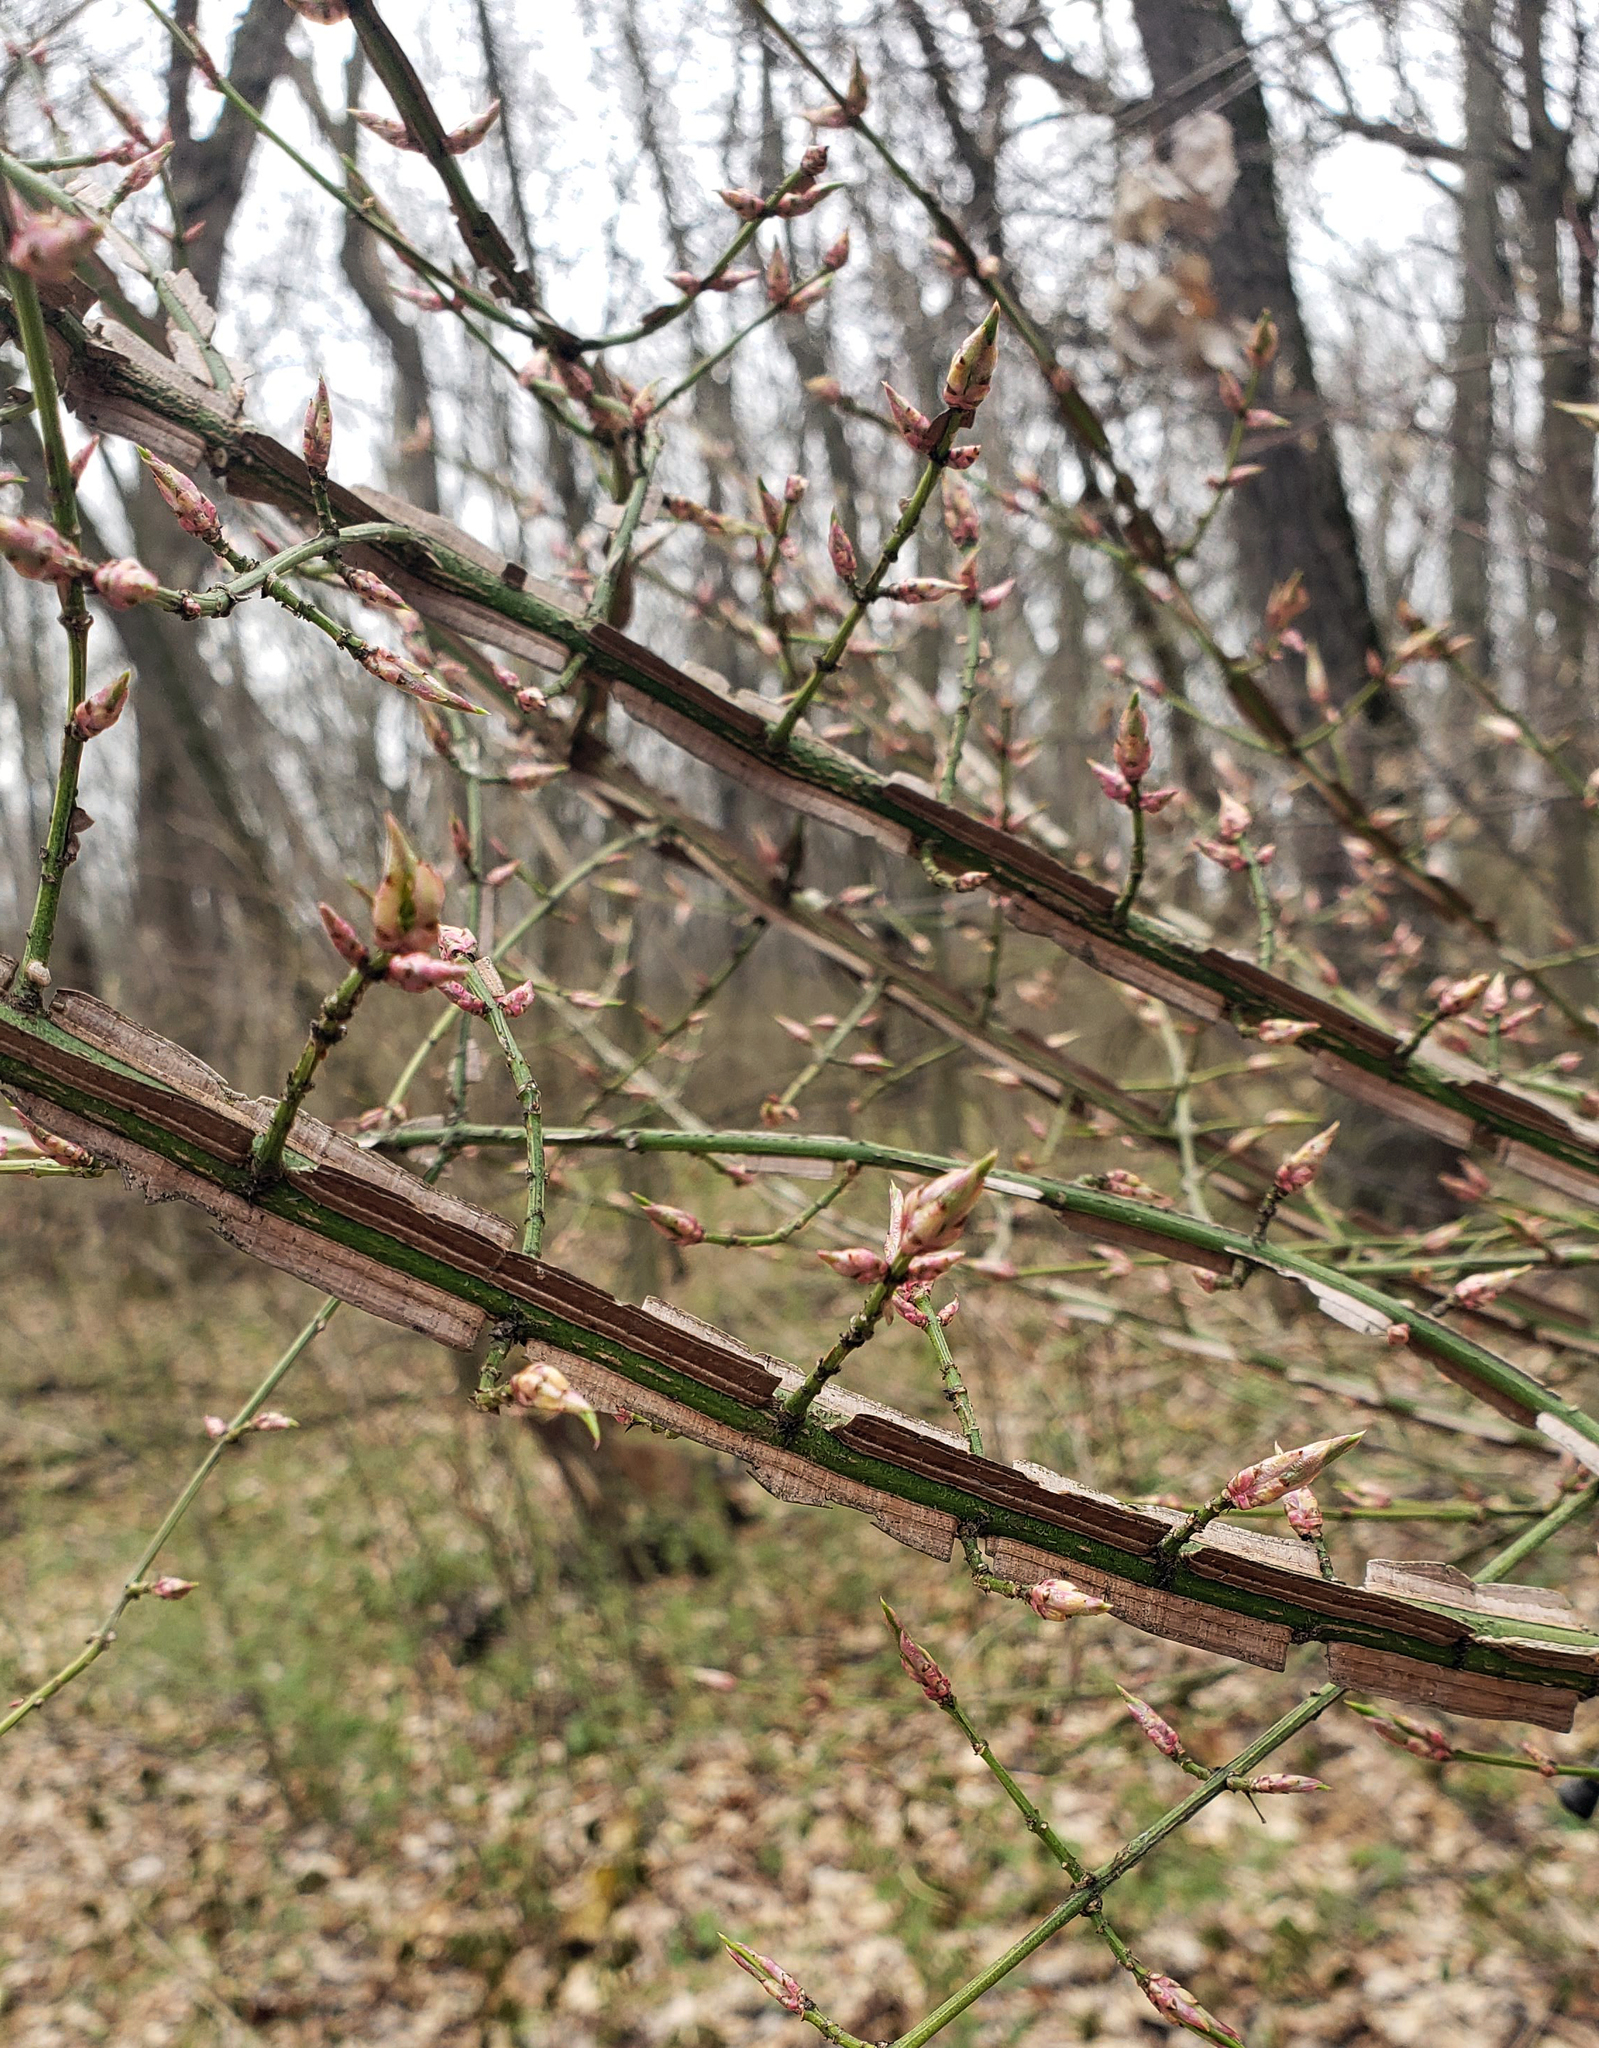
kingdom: Plantae
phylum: Tracheophyta
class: Magnoliopsida
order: Celastrales
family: Celastraceae
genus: Euonymus
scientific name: Euonymus alatus
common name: Winged euonymus
